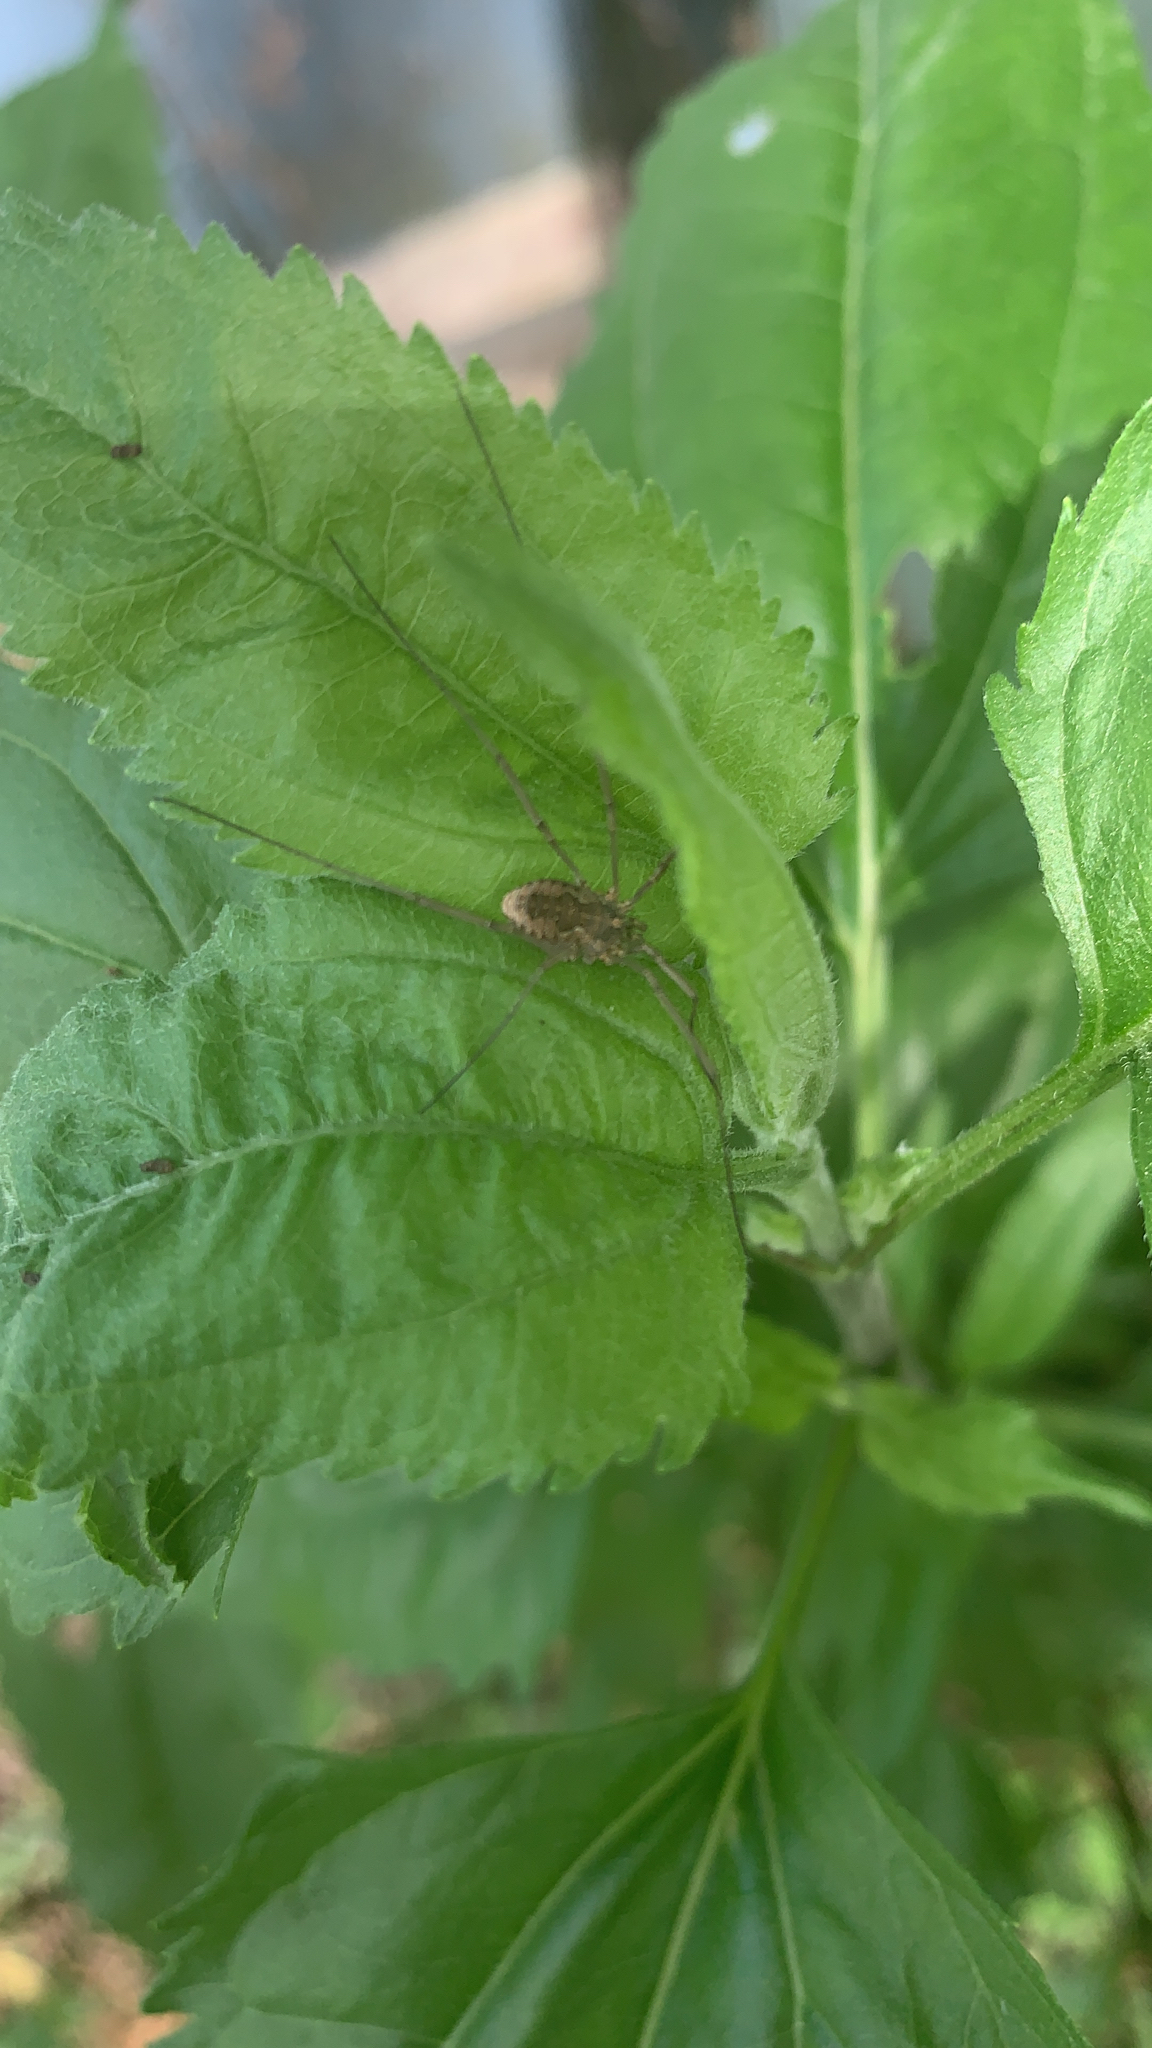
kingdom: Animalia
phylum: Arthropoda
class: Arachnida
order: Opiliones
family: Phalangiidae
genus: Phalangium
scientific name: Phalangium opilio
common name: Daddy longleg
